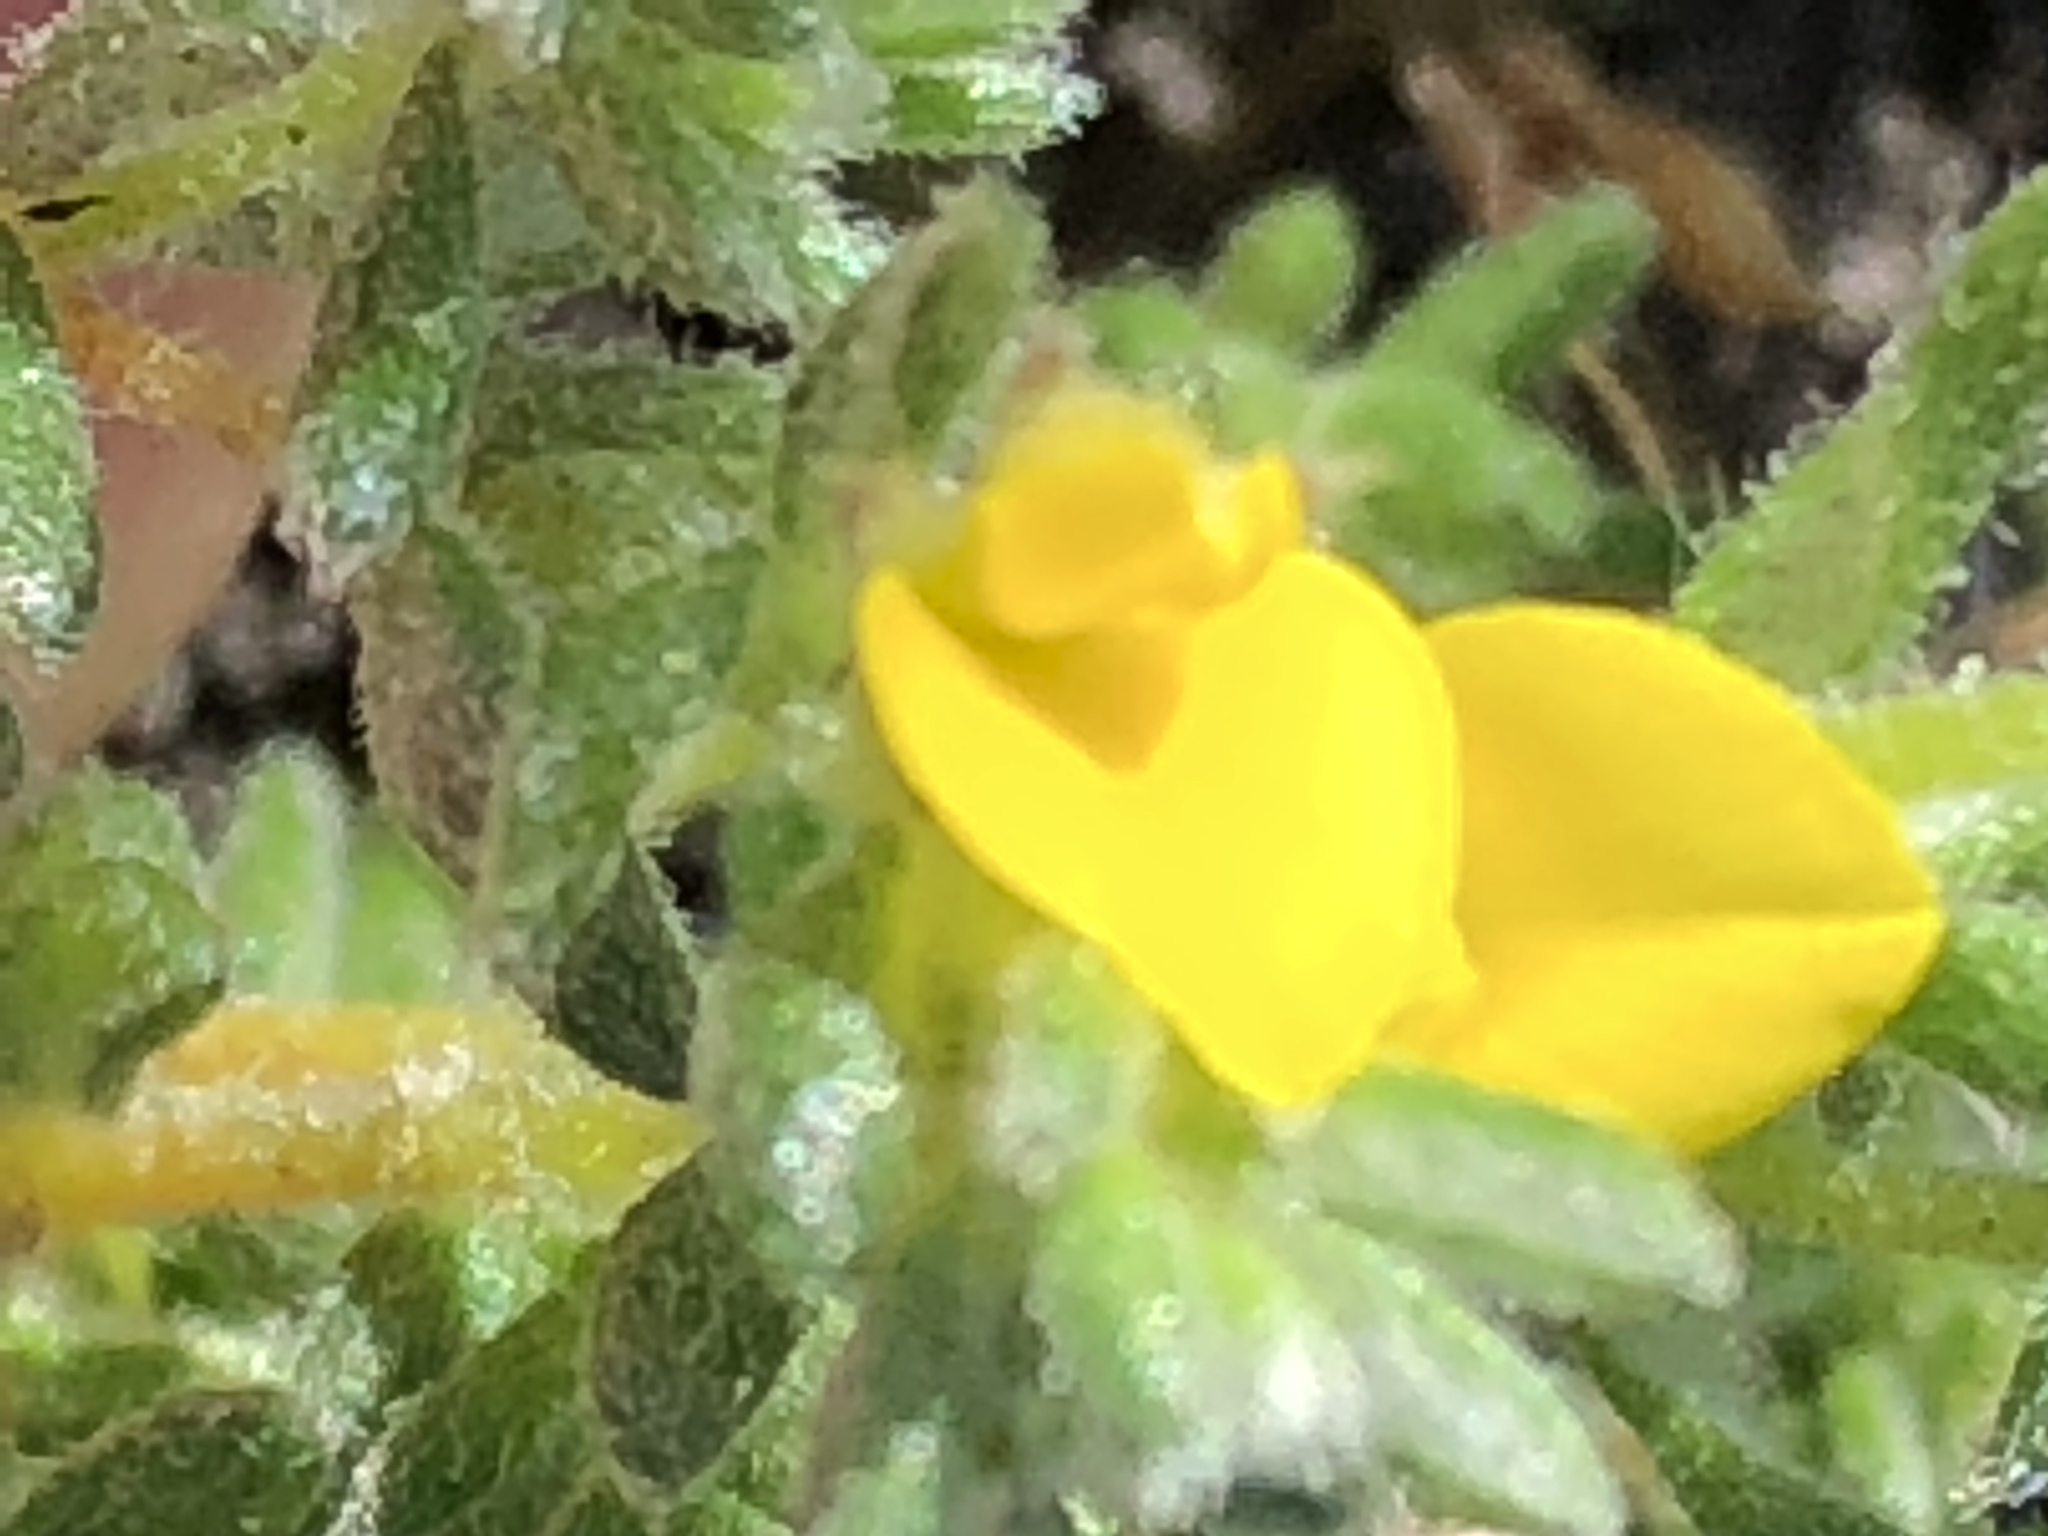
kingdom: Plantae
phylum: Tracheophyta
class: Magnoliopsida
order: Fabales
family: Fabaceae
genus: Aspalathus
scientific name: Aspalathus diffusa
